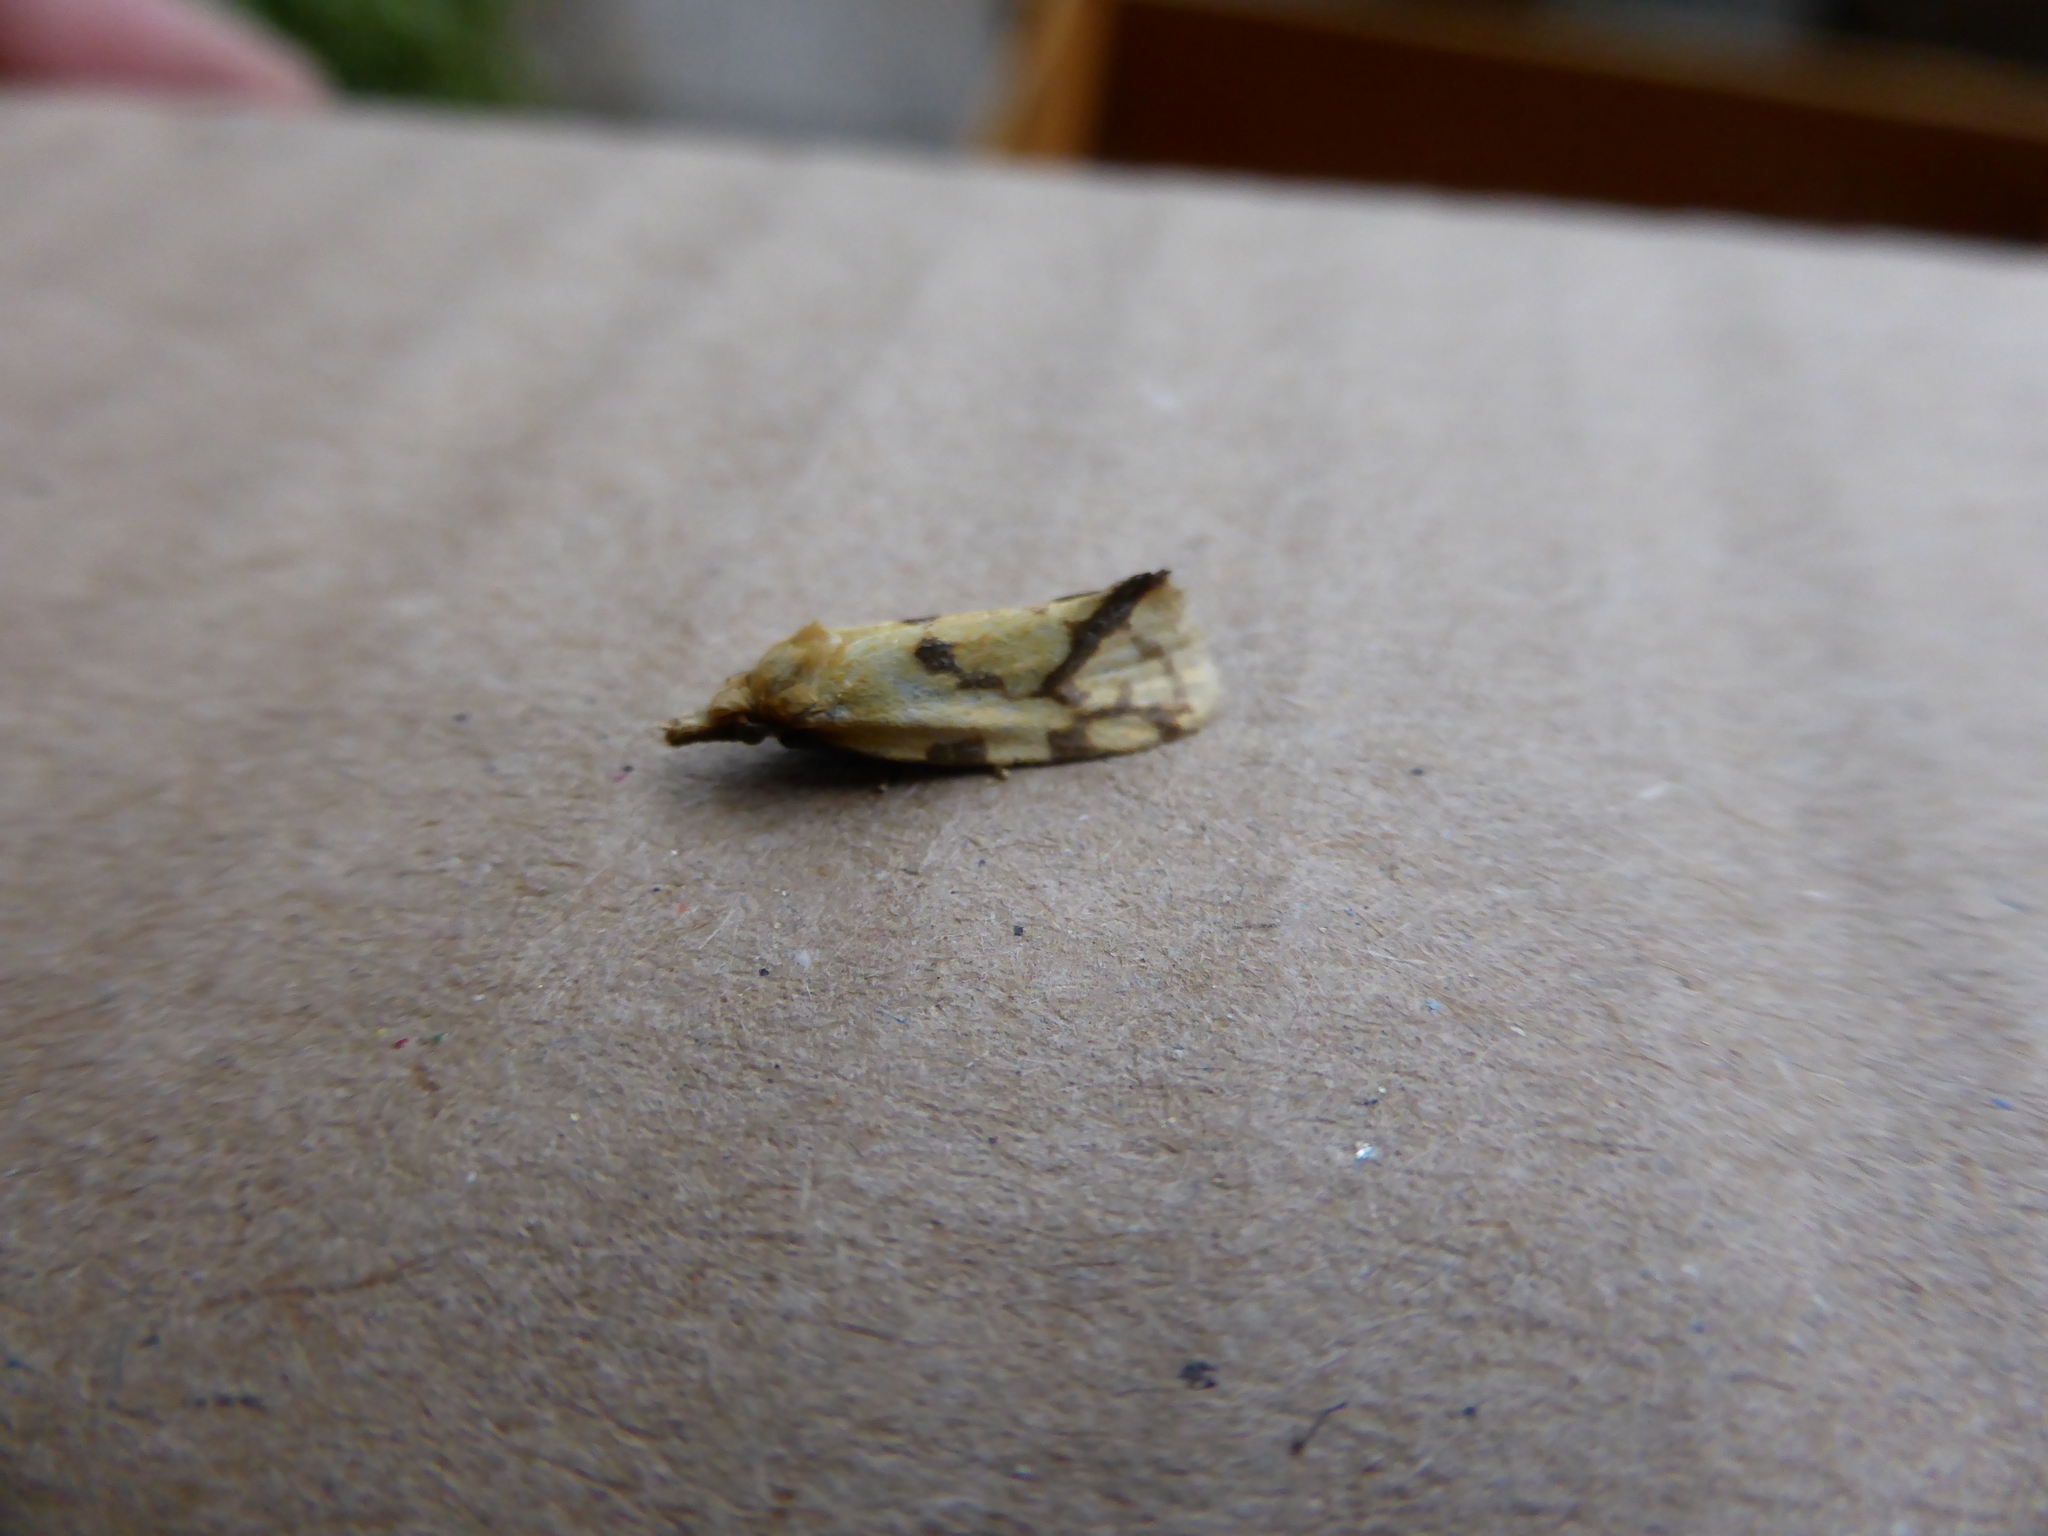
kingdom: Animalia
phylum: Arthropoda
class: Insecta
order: Lepidoptera
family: Tortricidae
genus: Agapeta
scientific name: Agapeta hamana
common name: Common yellow conch
